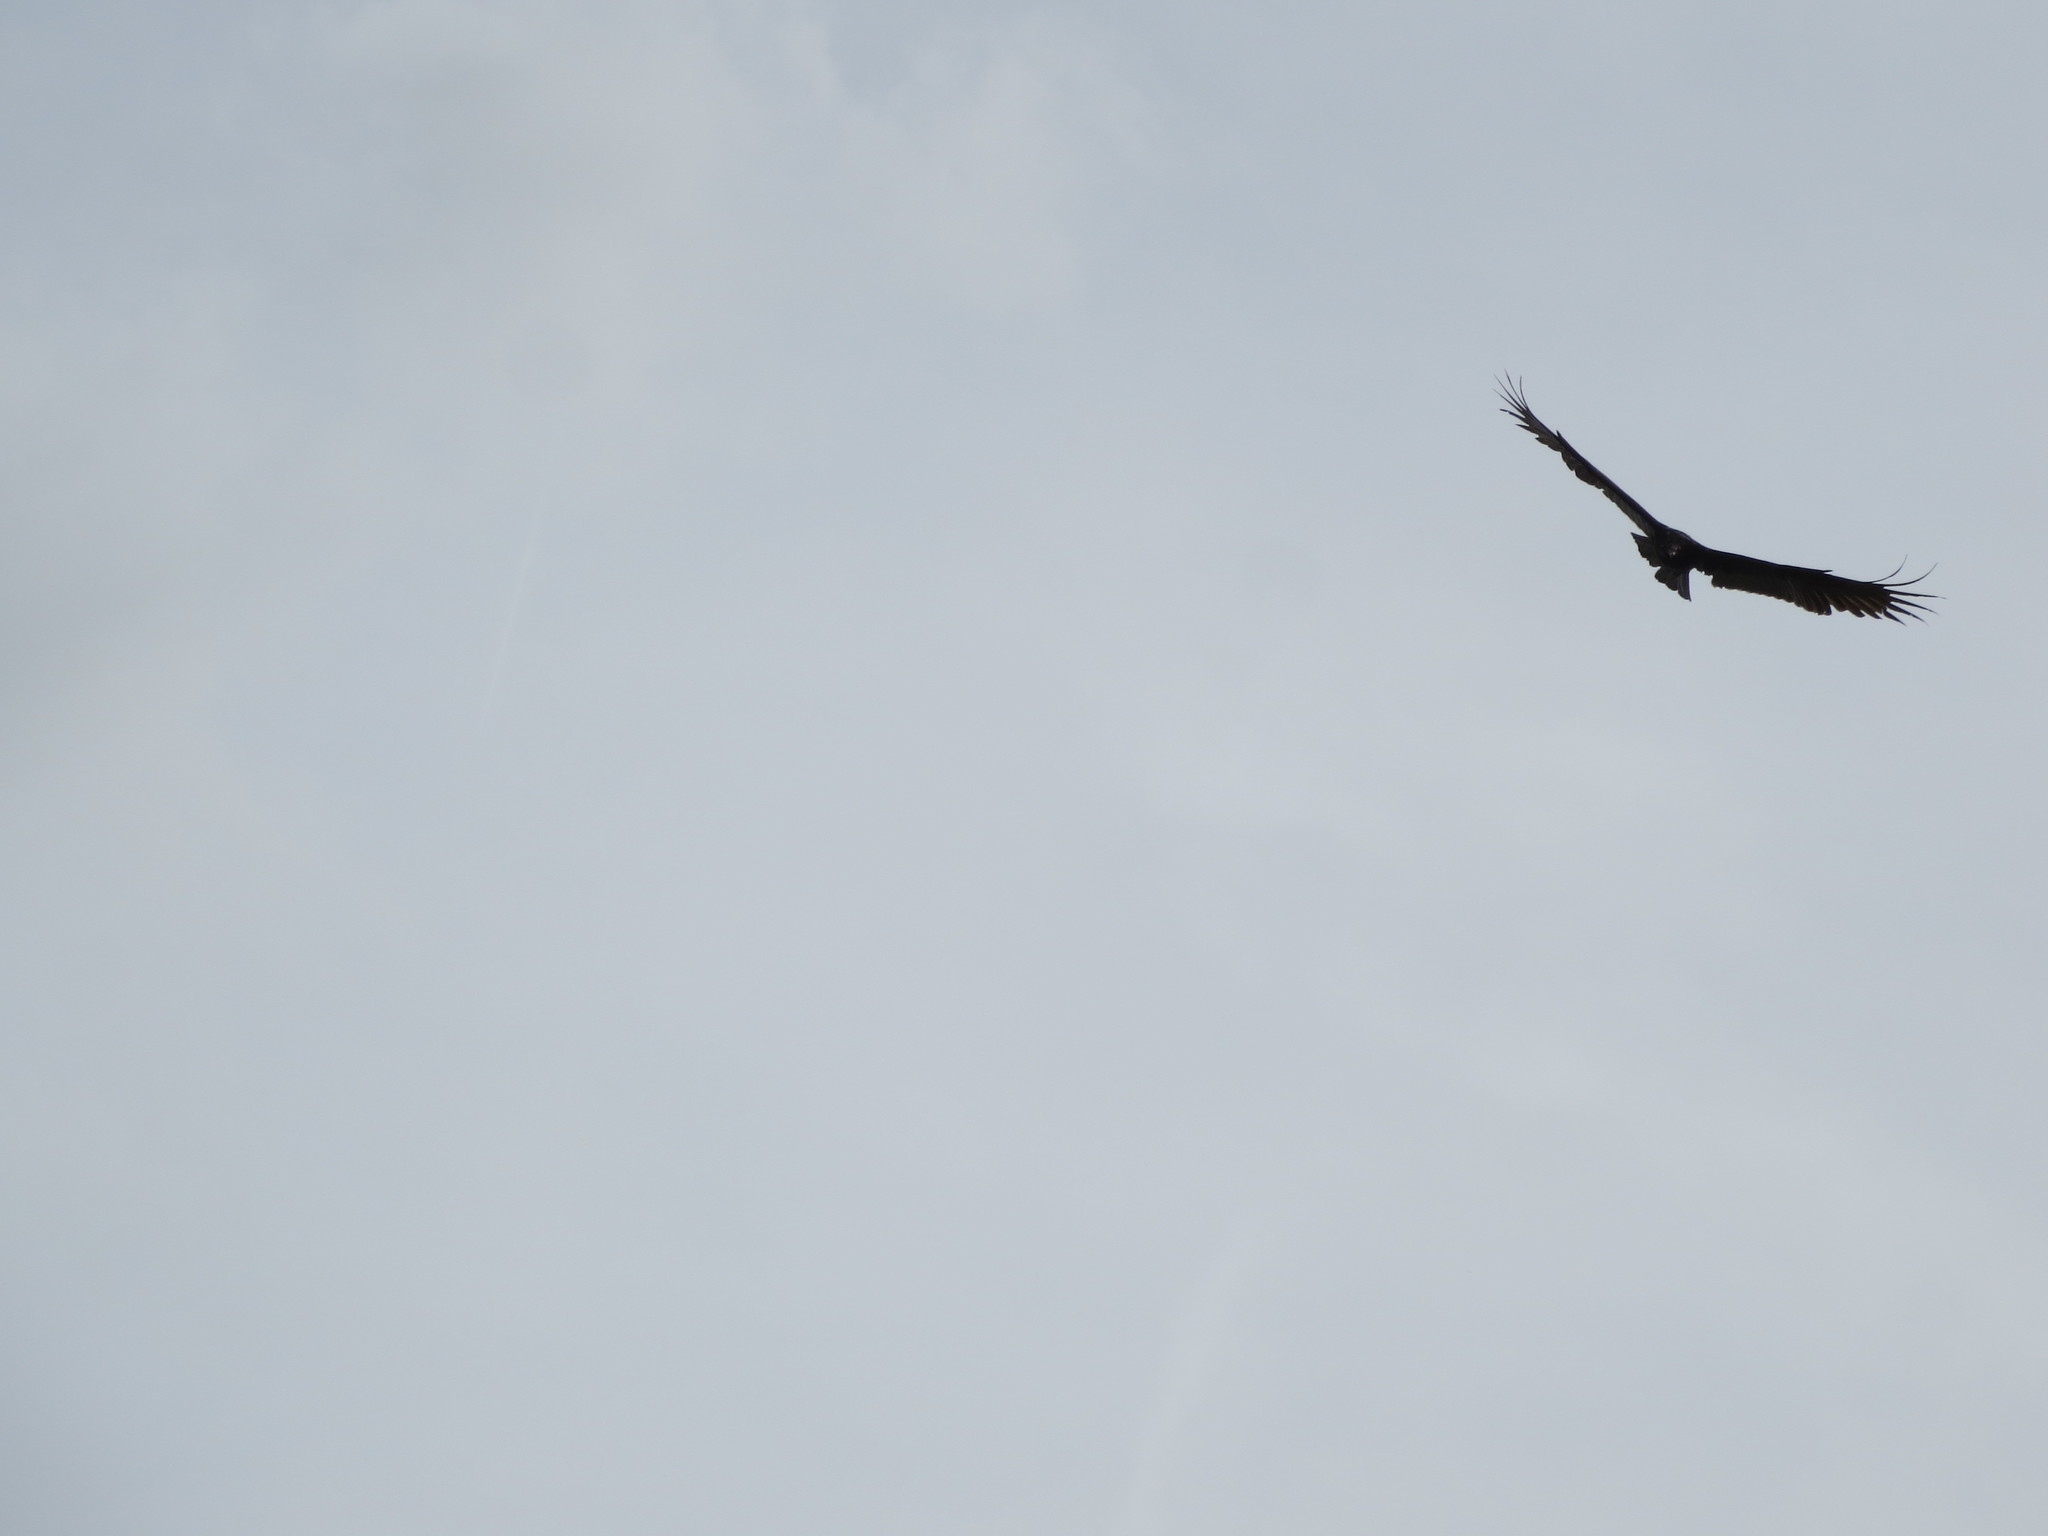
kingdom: Animalia
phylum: Chordata
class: Aves
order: Accipitriformes
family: Cathartidae
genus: Cathartes
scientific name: Cathartes aura
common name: Turkey vulture
